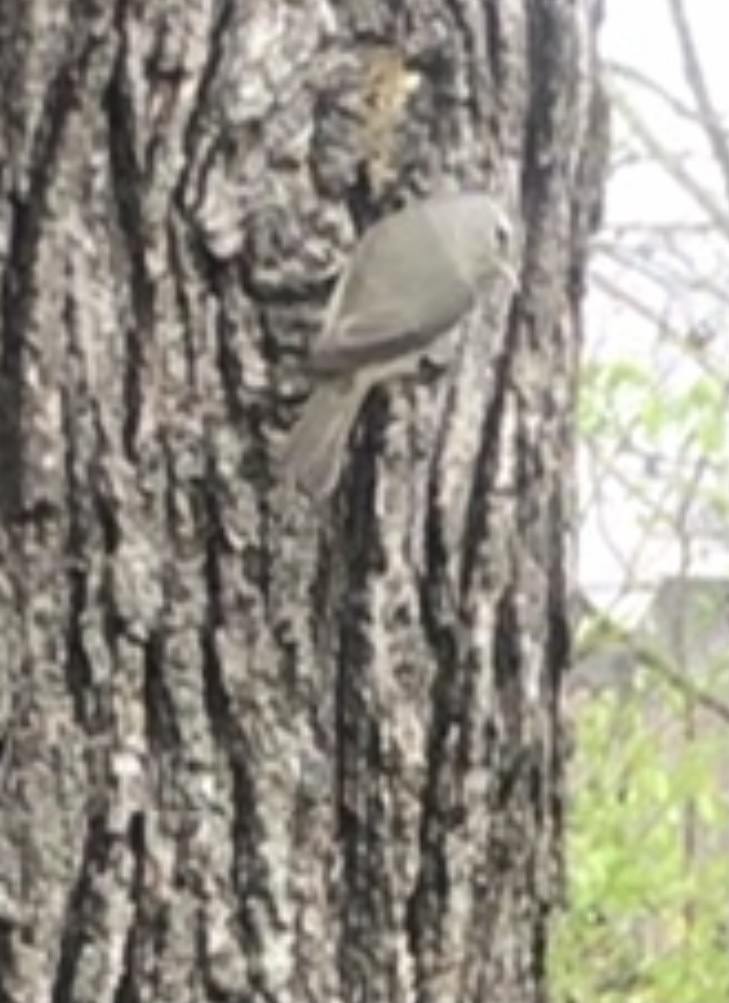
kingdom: Animalia
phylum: Chordata
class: Aves
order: Passeriformes
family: Parulidae
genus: Leiothlypis
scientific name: Leiothlypis celata
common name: Orange-crowned warbler
